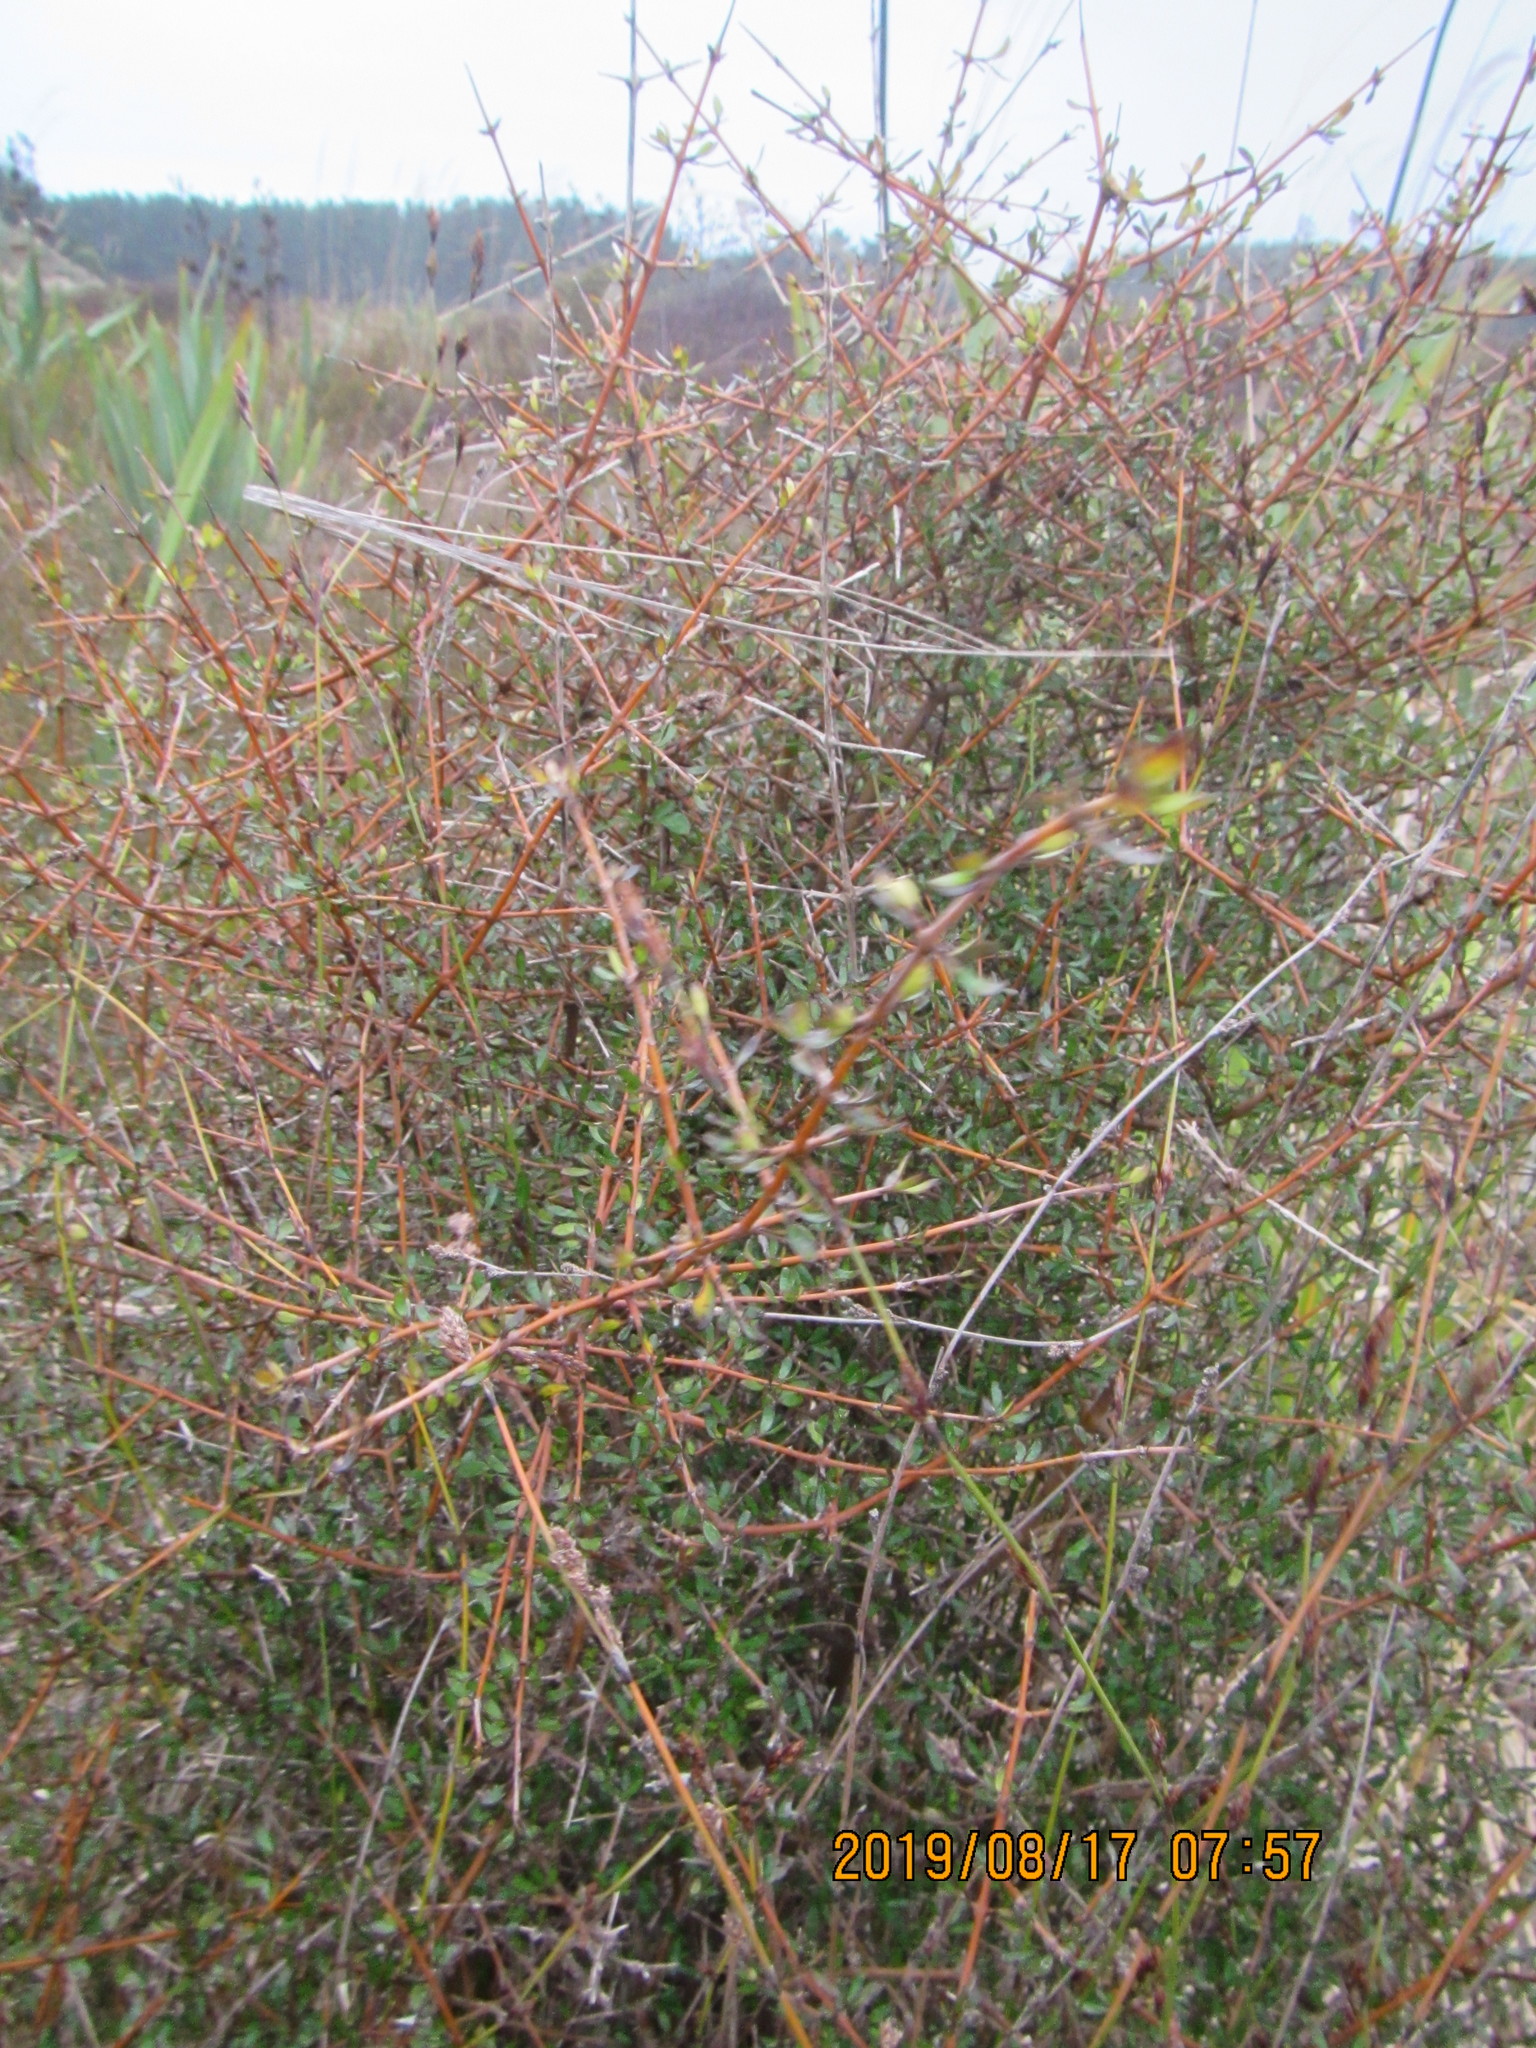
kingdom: Plantae
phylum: Tracheophyta
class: Magnoliopsida
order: Gentianales
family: Rubiaceae
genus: Coprosma
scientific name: Coprosma propinqua
